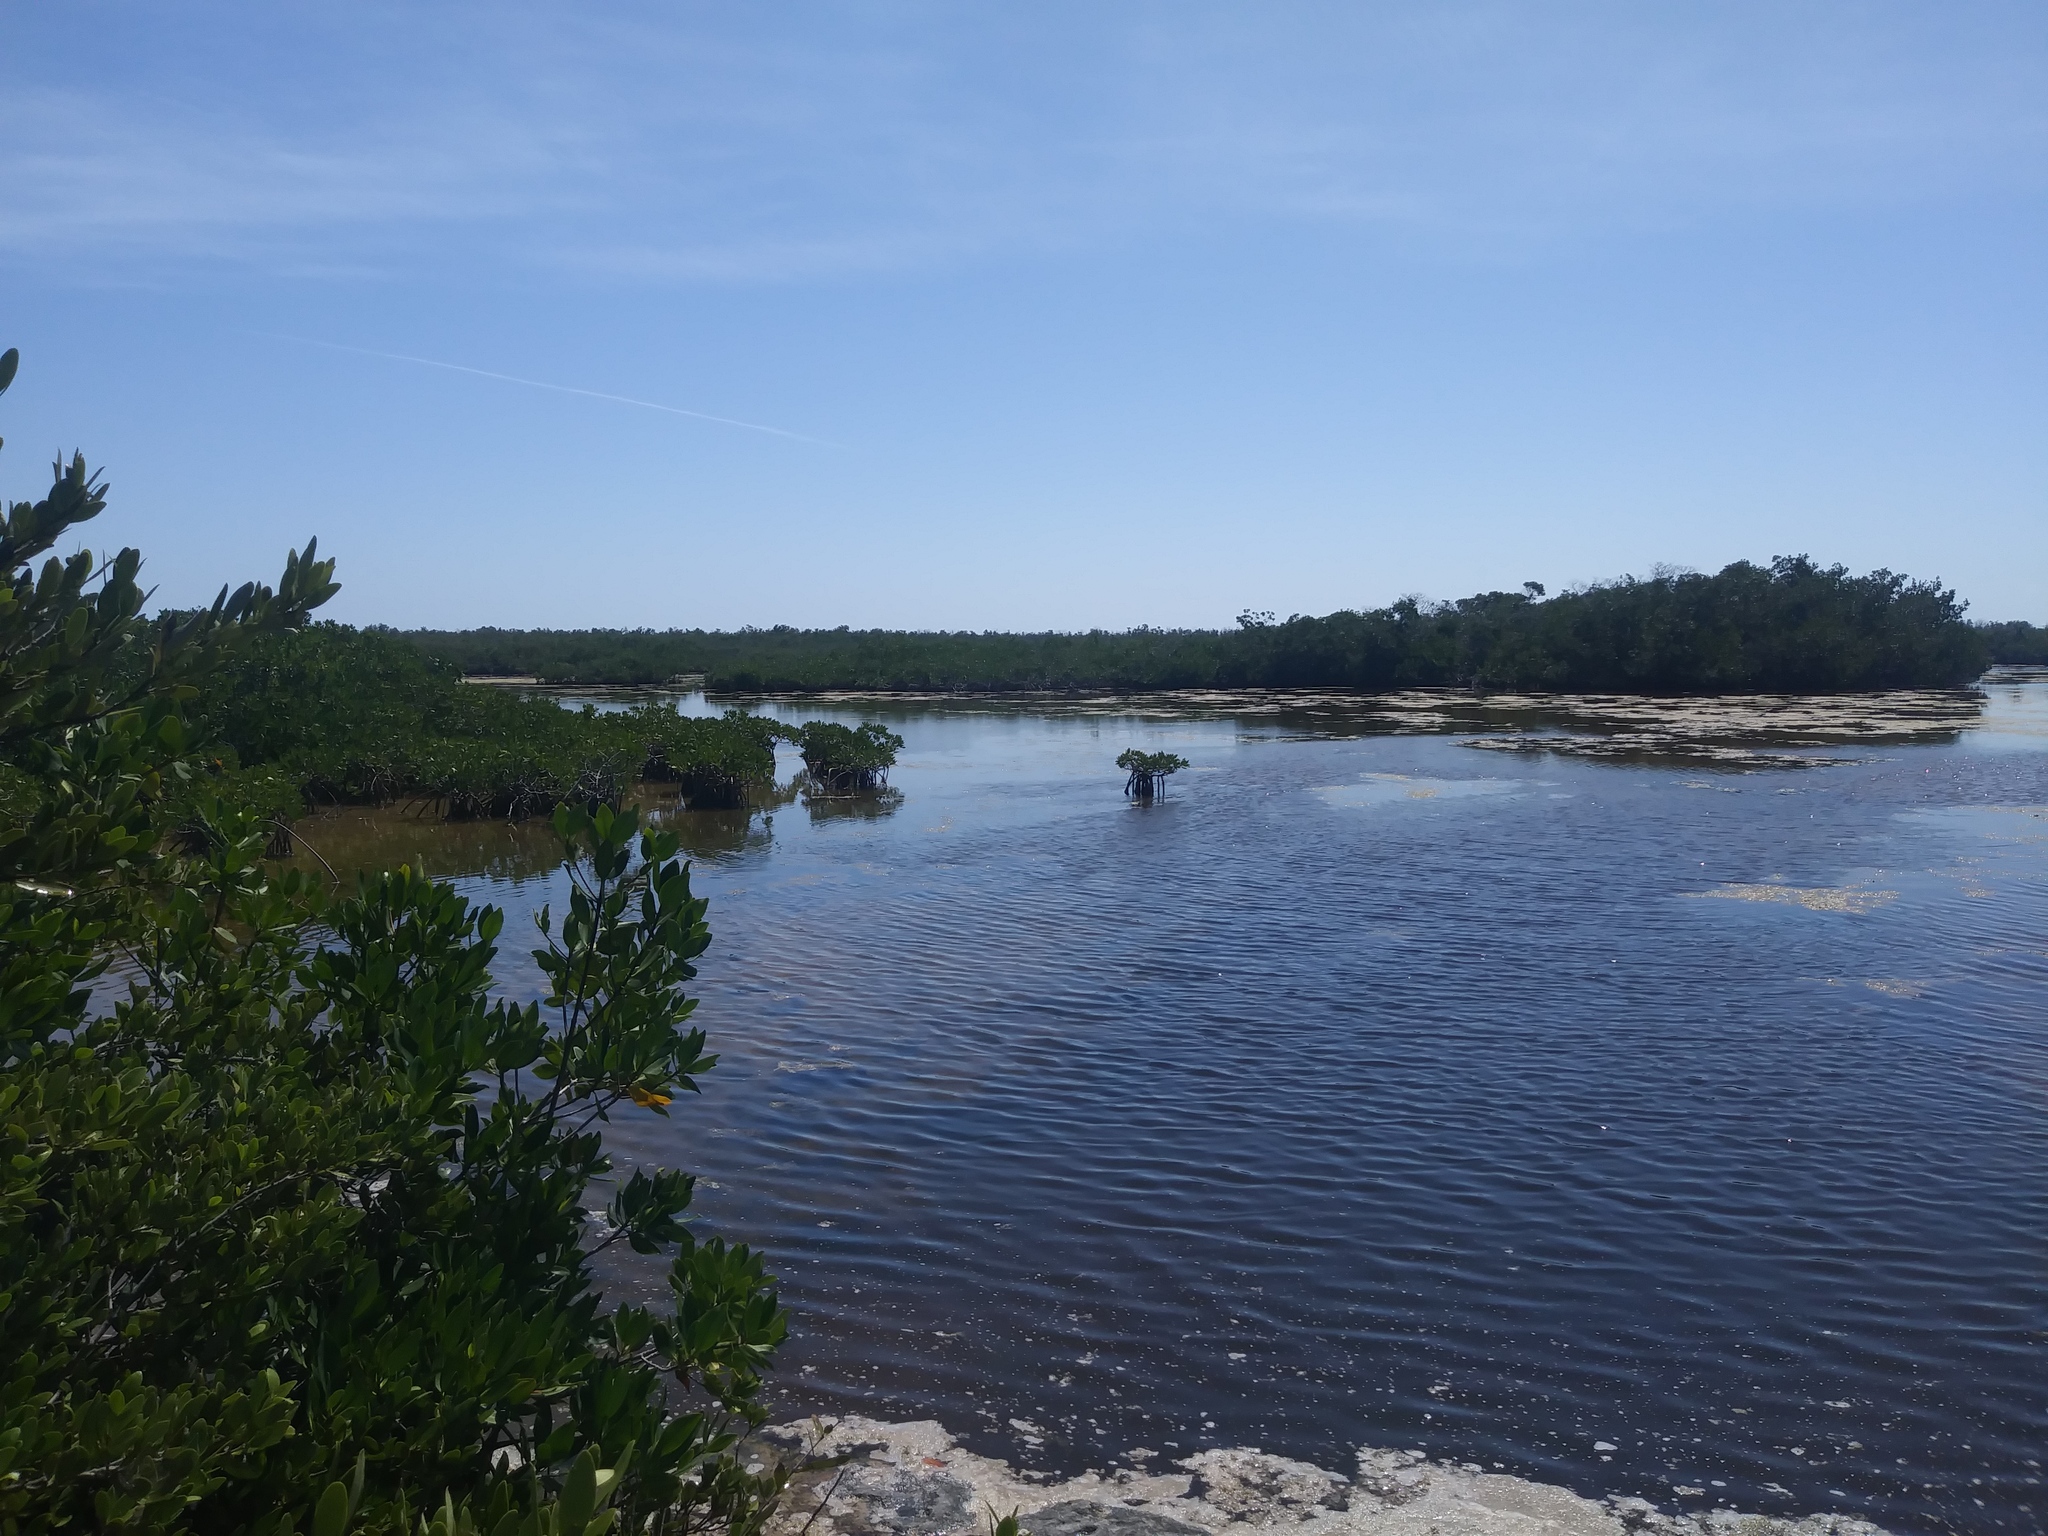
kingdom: Plantae
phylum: Tracheophyta
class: Magnoliopsida
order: Malpighiales
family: Rhizophoraceae
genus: Rhizophora
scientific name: Rhizophora mangle
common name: Red mangrove
